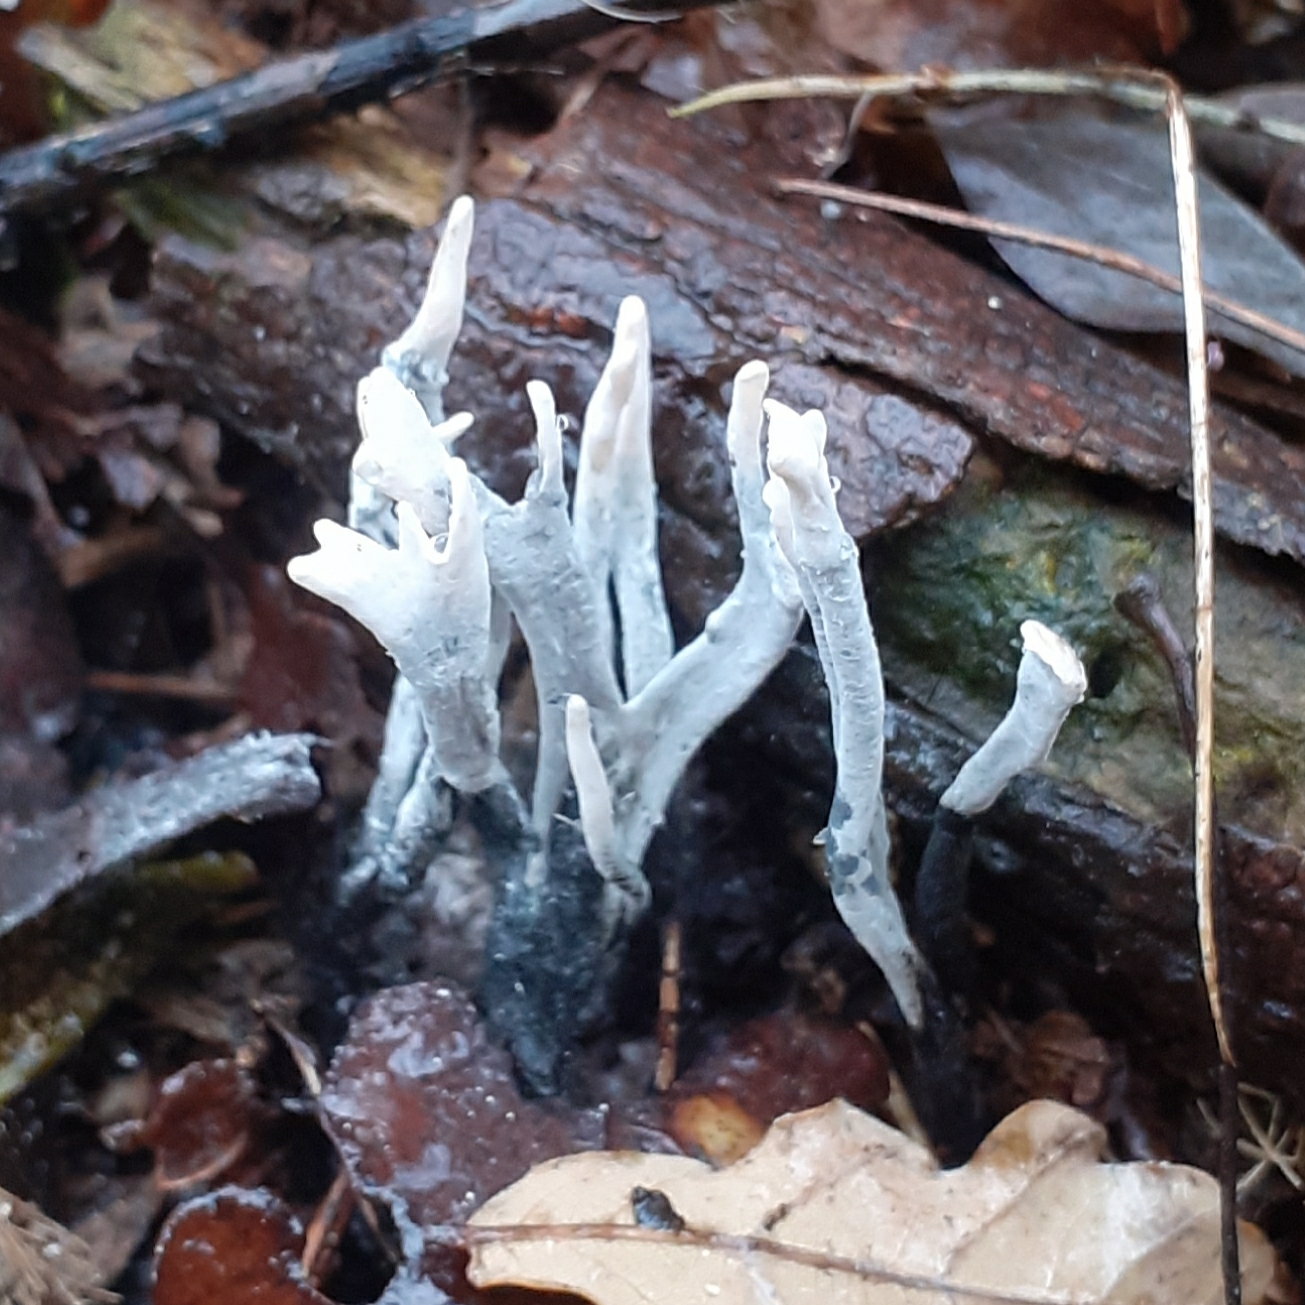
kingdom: Fungi
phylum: Ascomycota
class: Sordariomycetes
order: Xylariales
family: Xylariaceae
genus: Xylaria
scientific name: Xylaria hypoxylon
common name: Candle-snuff fungus
